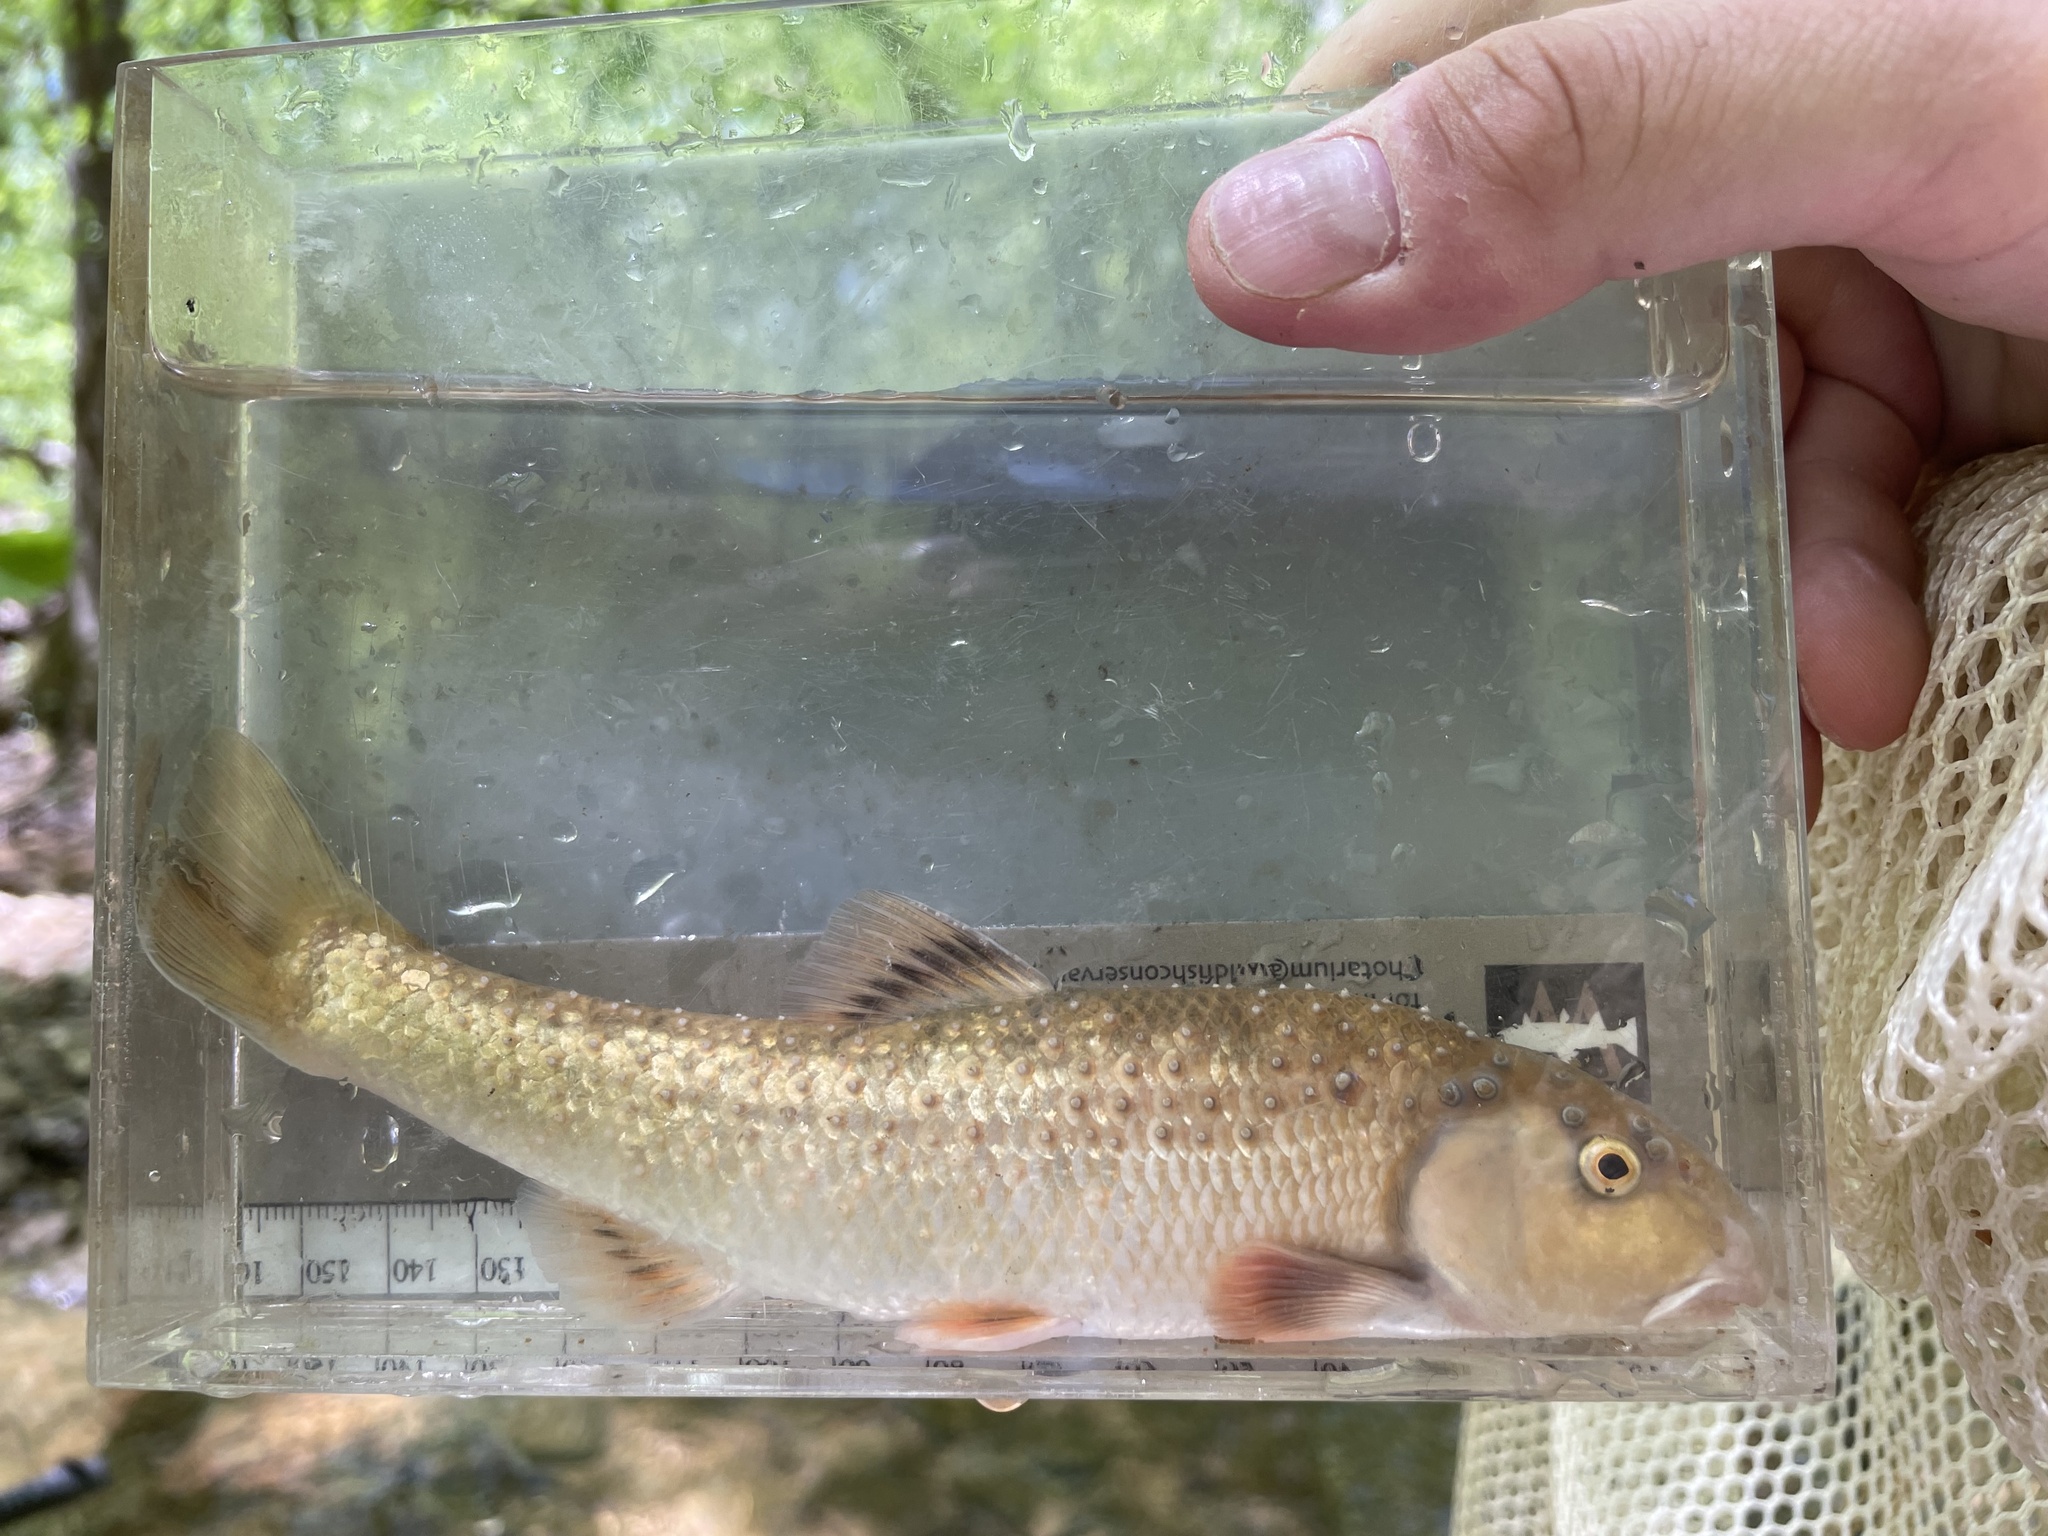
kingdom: Animalia
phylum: Chordata
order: Cypriniformes
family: Cyprinidae
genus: Campostoma
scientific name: Campostoma oligolepis
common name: Largescale stoneroller
